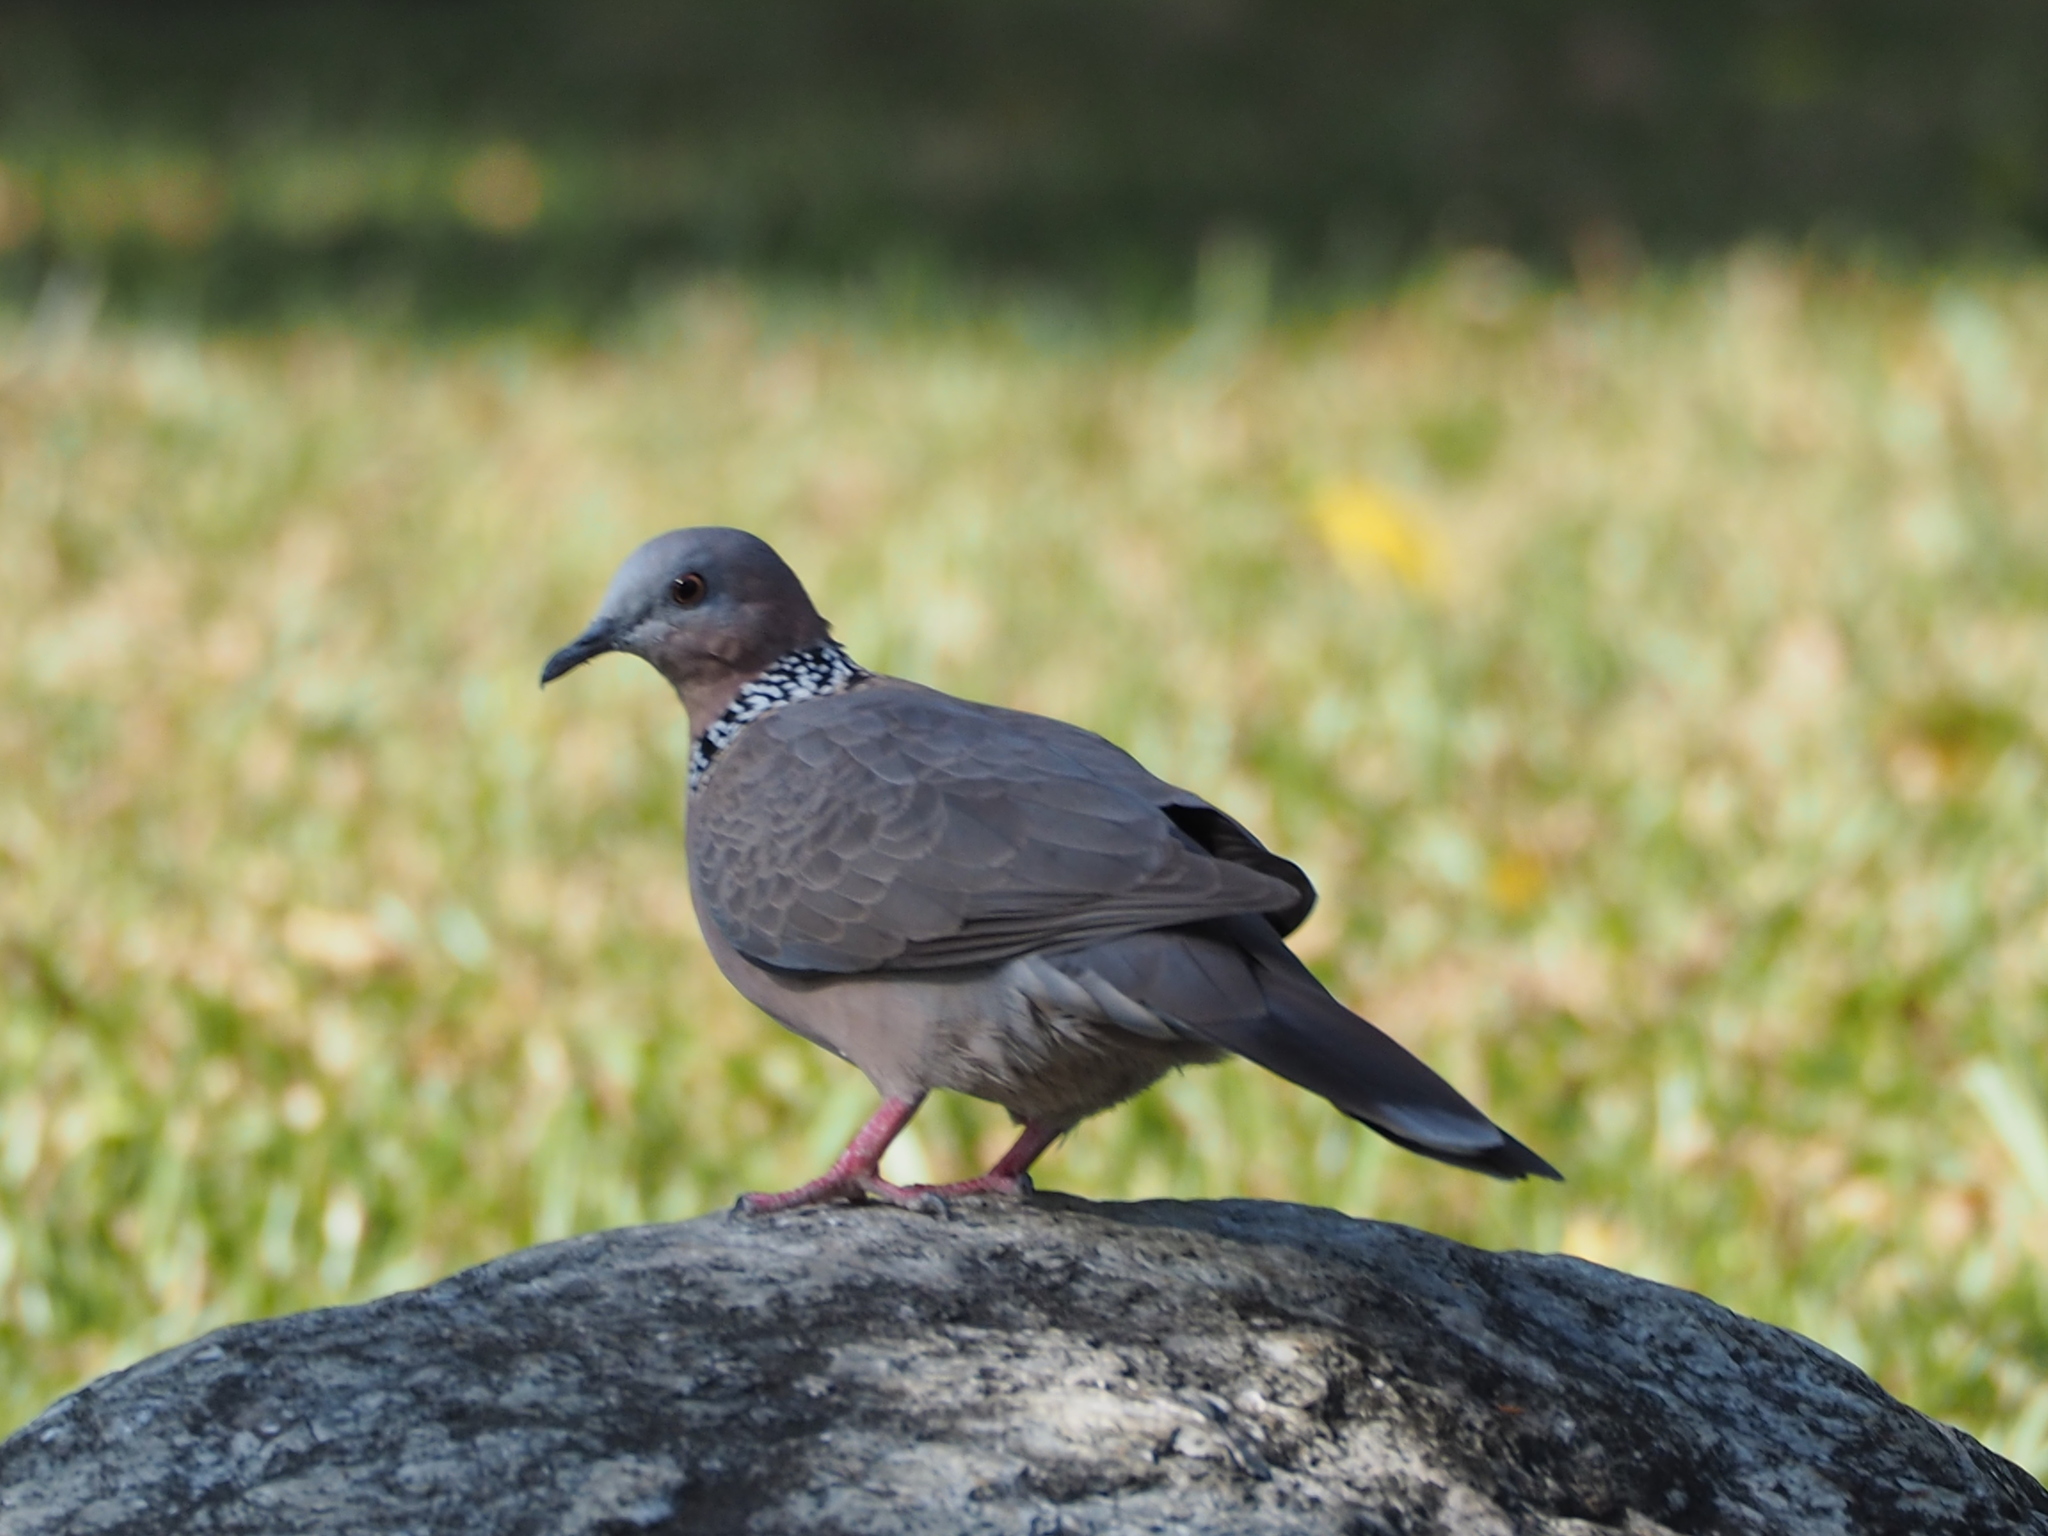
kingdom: Animalia
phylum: Chordata
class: Aves
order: Columbiformes
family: Columbidae
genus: Spilopelia
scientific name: Spilopelia chinensis
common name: Spotted dove
